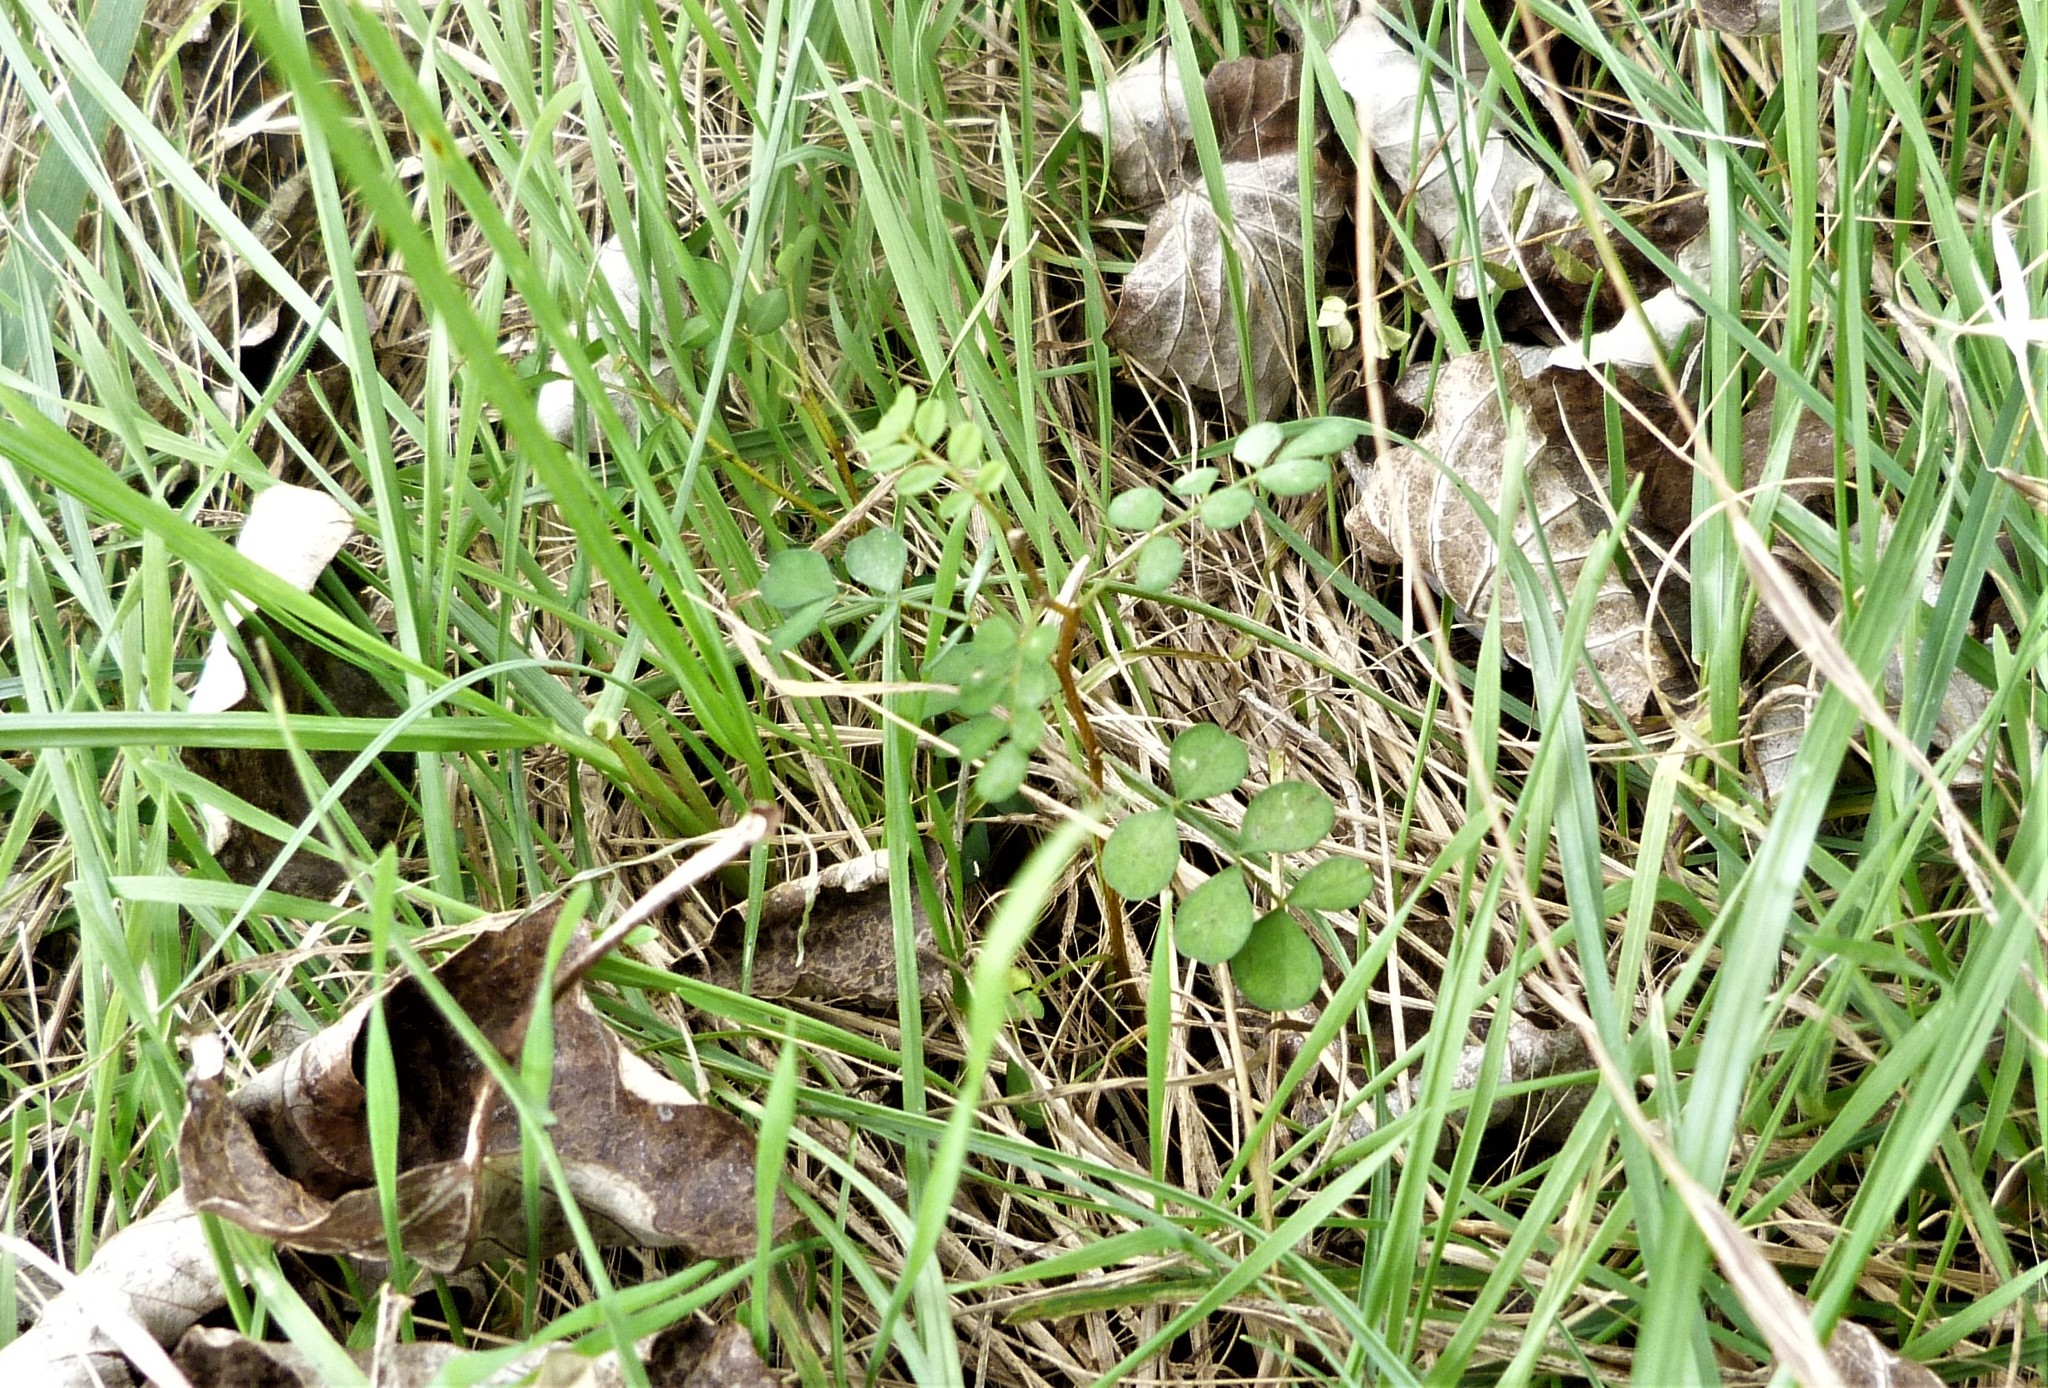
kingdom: Plantae
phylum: Tracheophyta
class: Magnoliopsida
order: Fabales
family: Fabaceae
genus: Sophora
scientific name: Sophora microphylla
